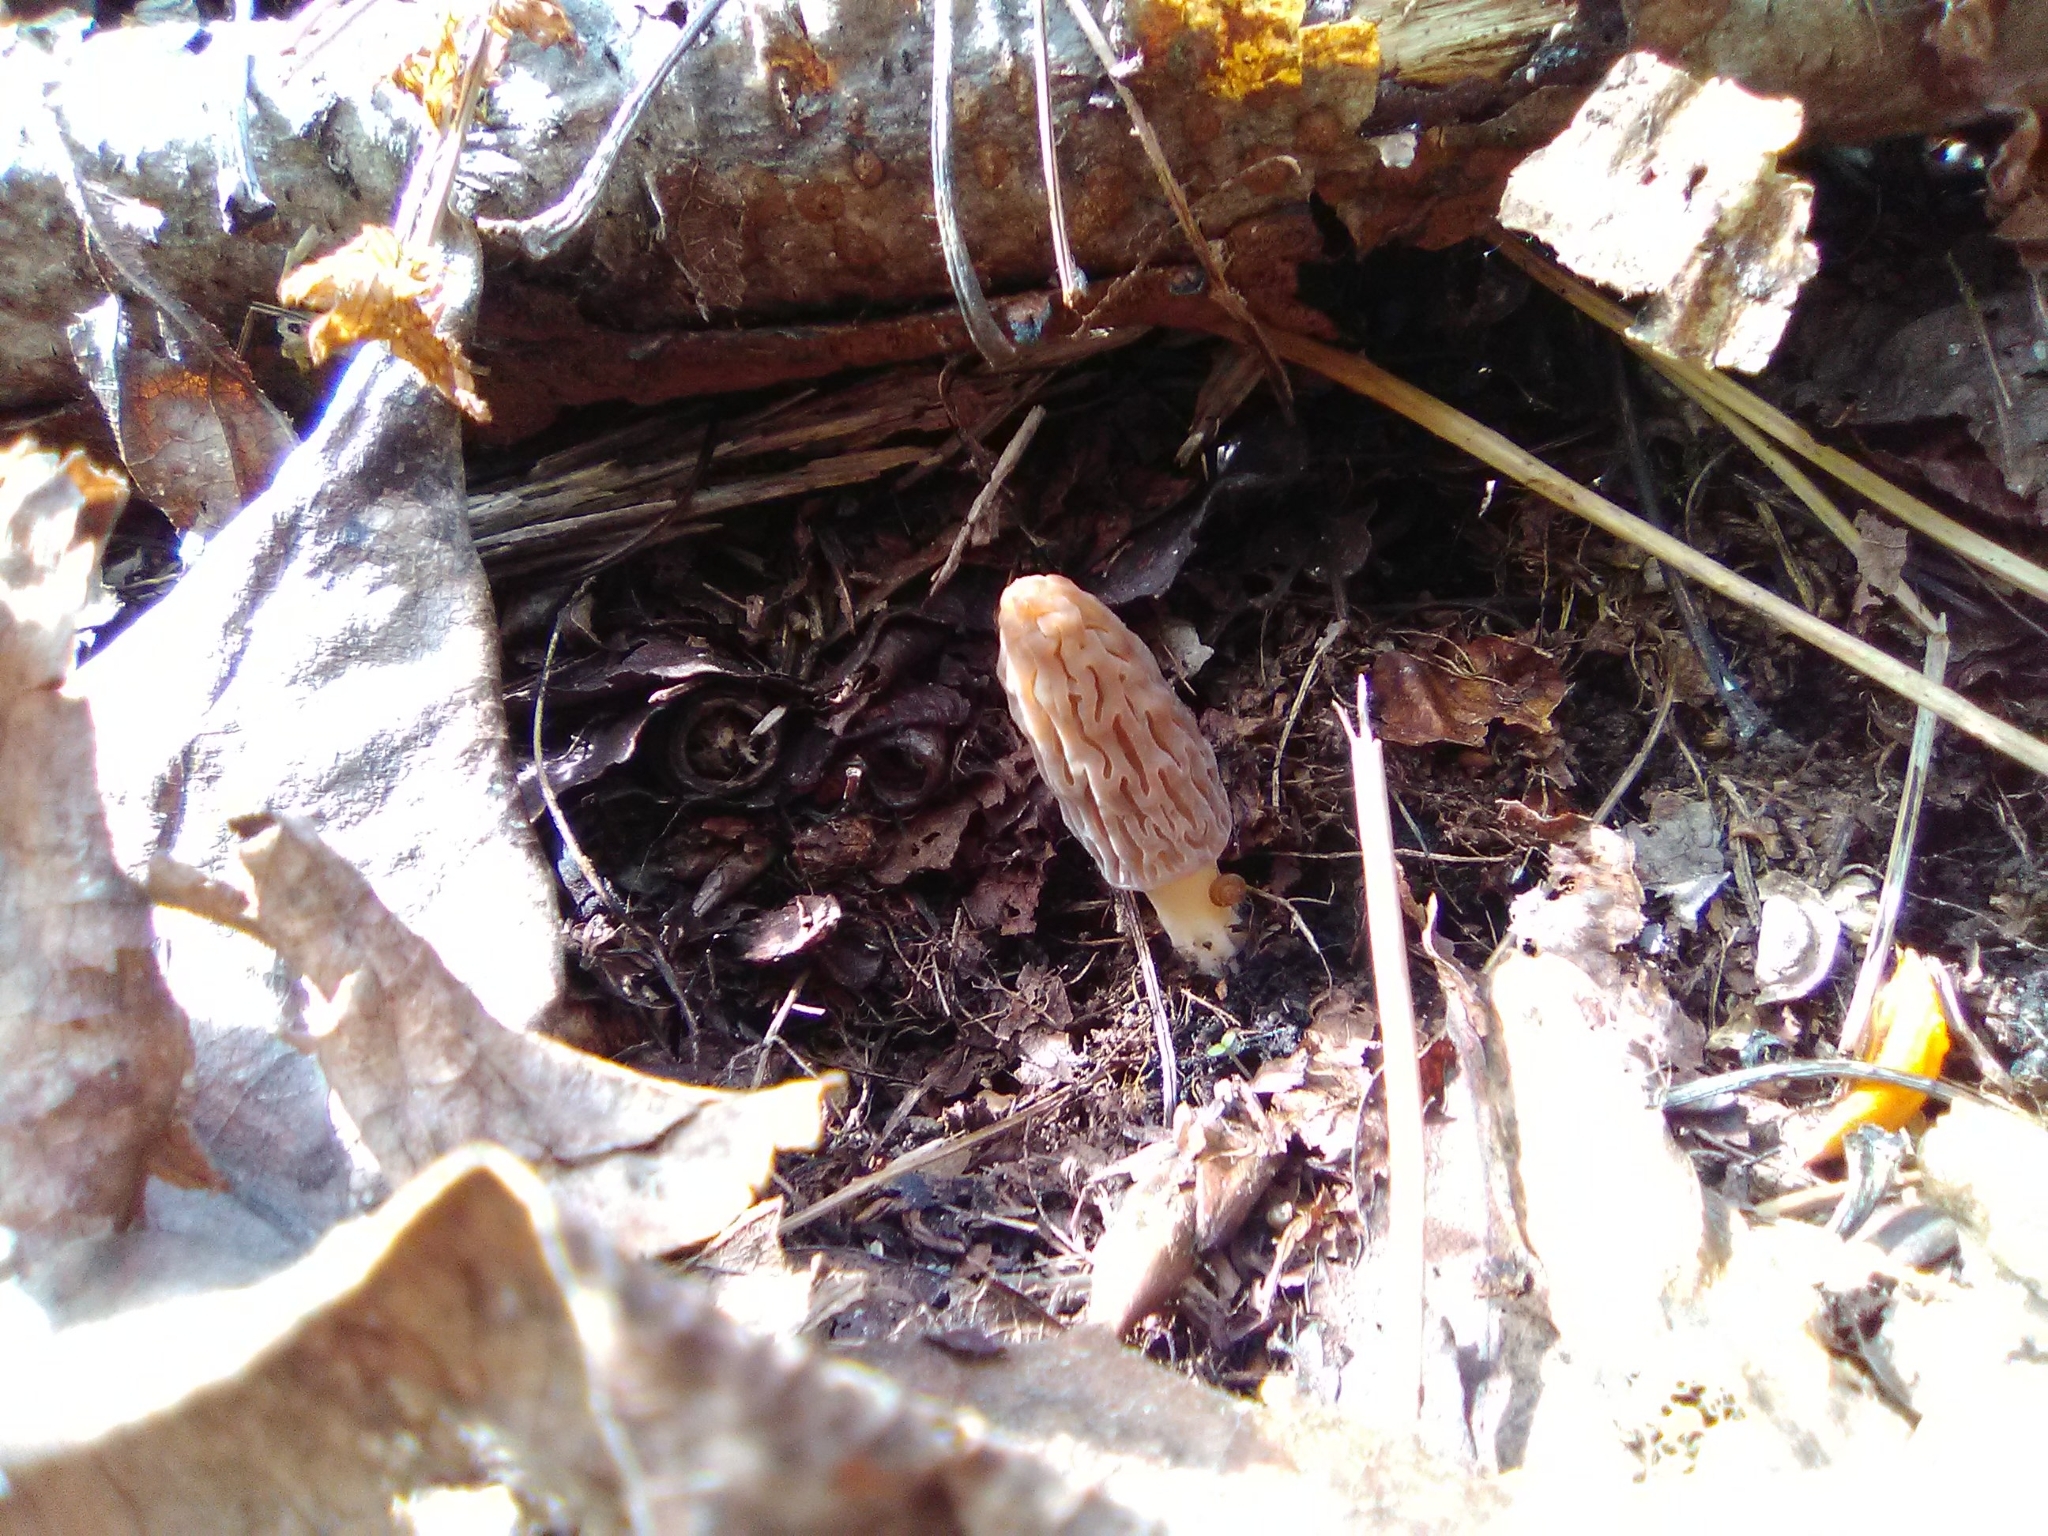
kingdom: Fungi
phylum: Ascomycota
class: Pezizomycetes
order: Pezizales
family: Morchellaceae
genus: Morchella
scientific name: Morchella pulchella
